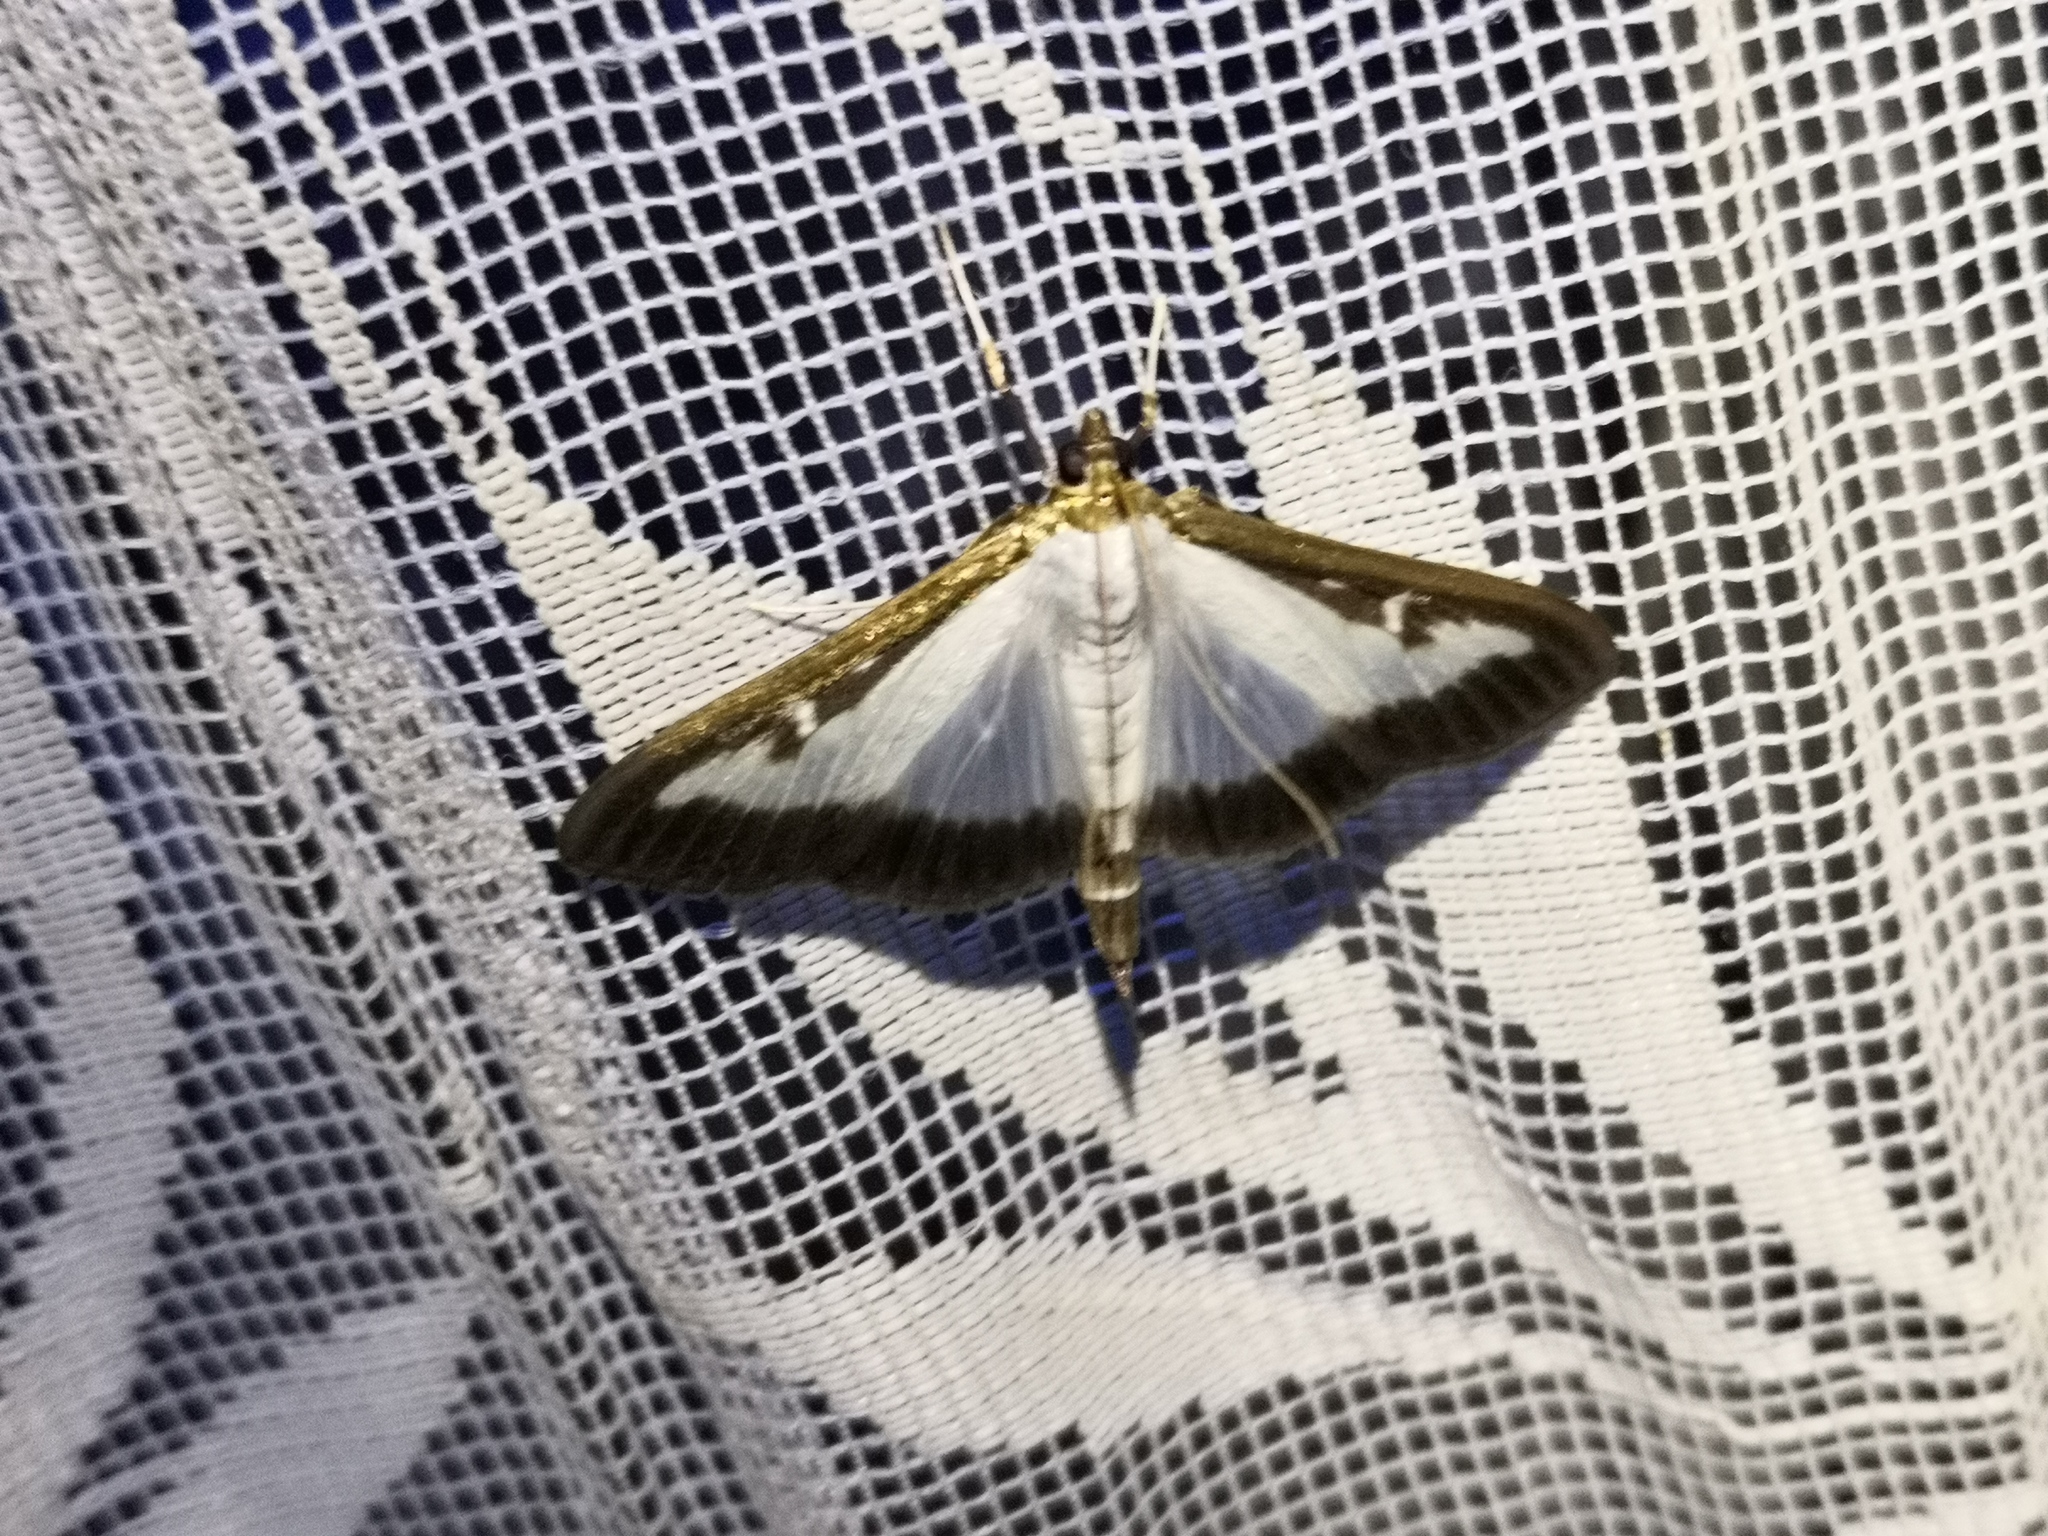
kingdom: Animalia
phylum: Arthropoda
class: Insecta
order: Lepidoptera
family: Crambidae
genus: Cydalima
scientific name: Cydalima perspectalis
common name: Box tree moth
